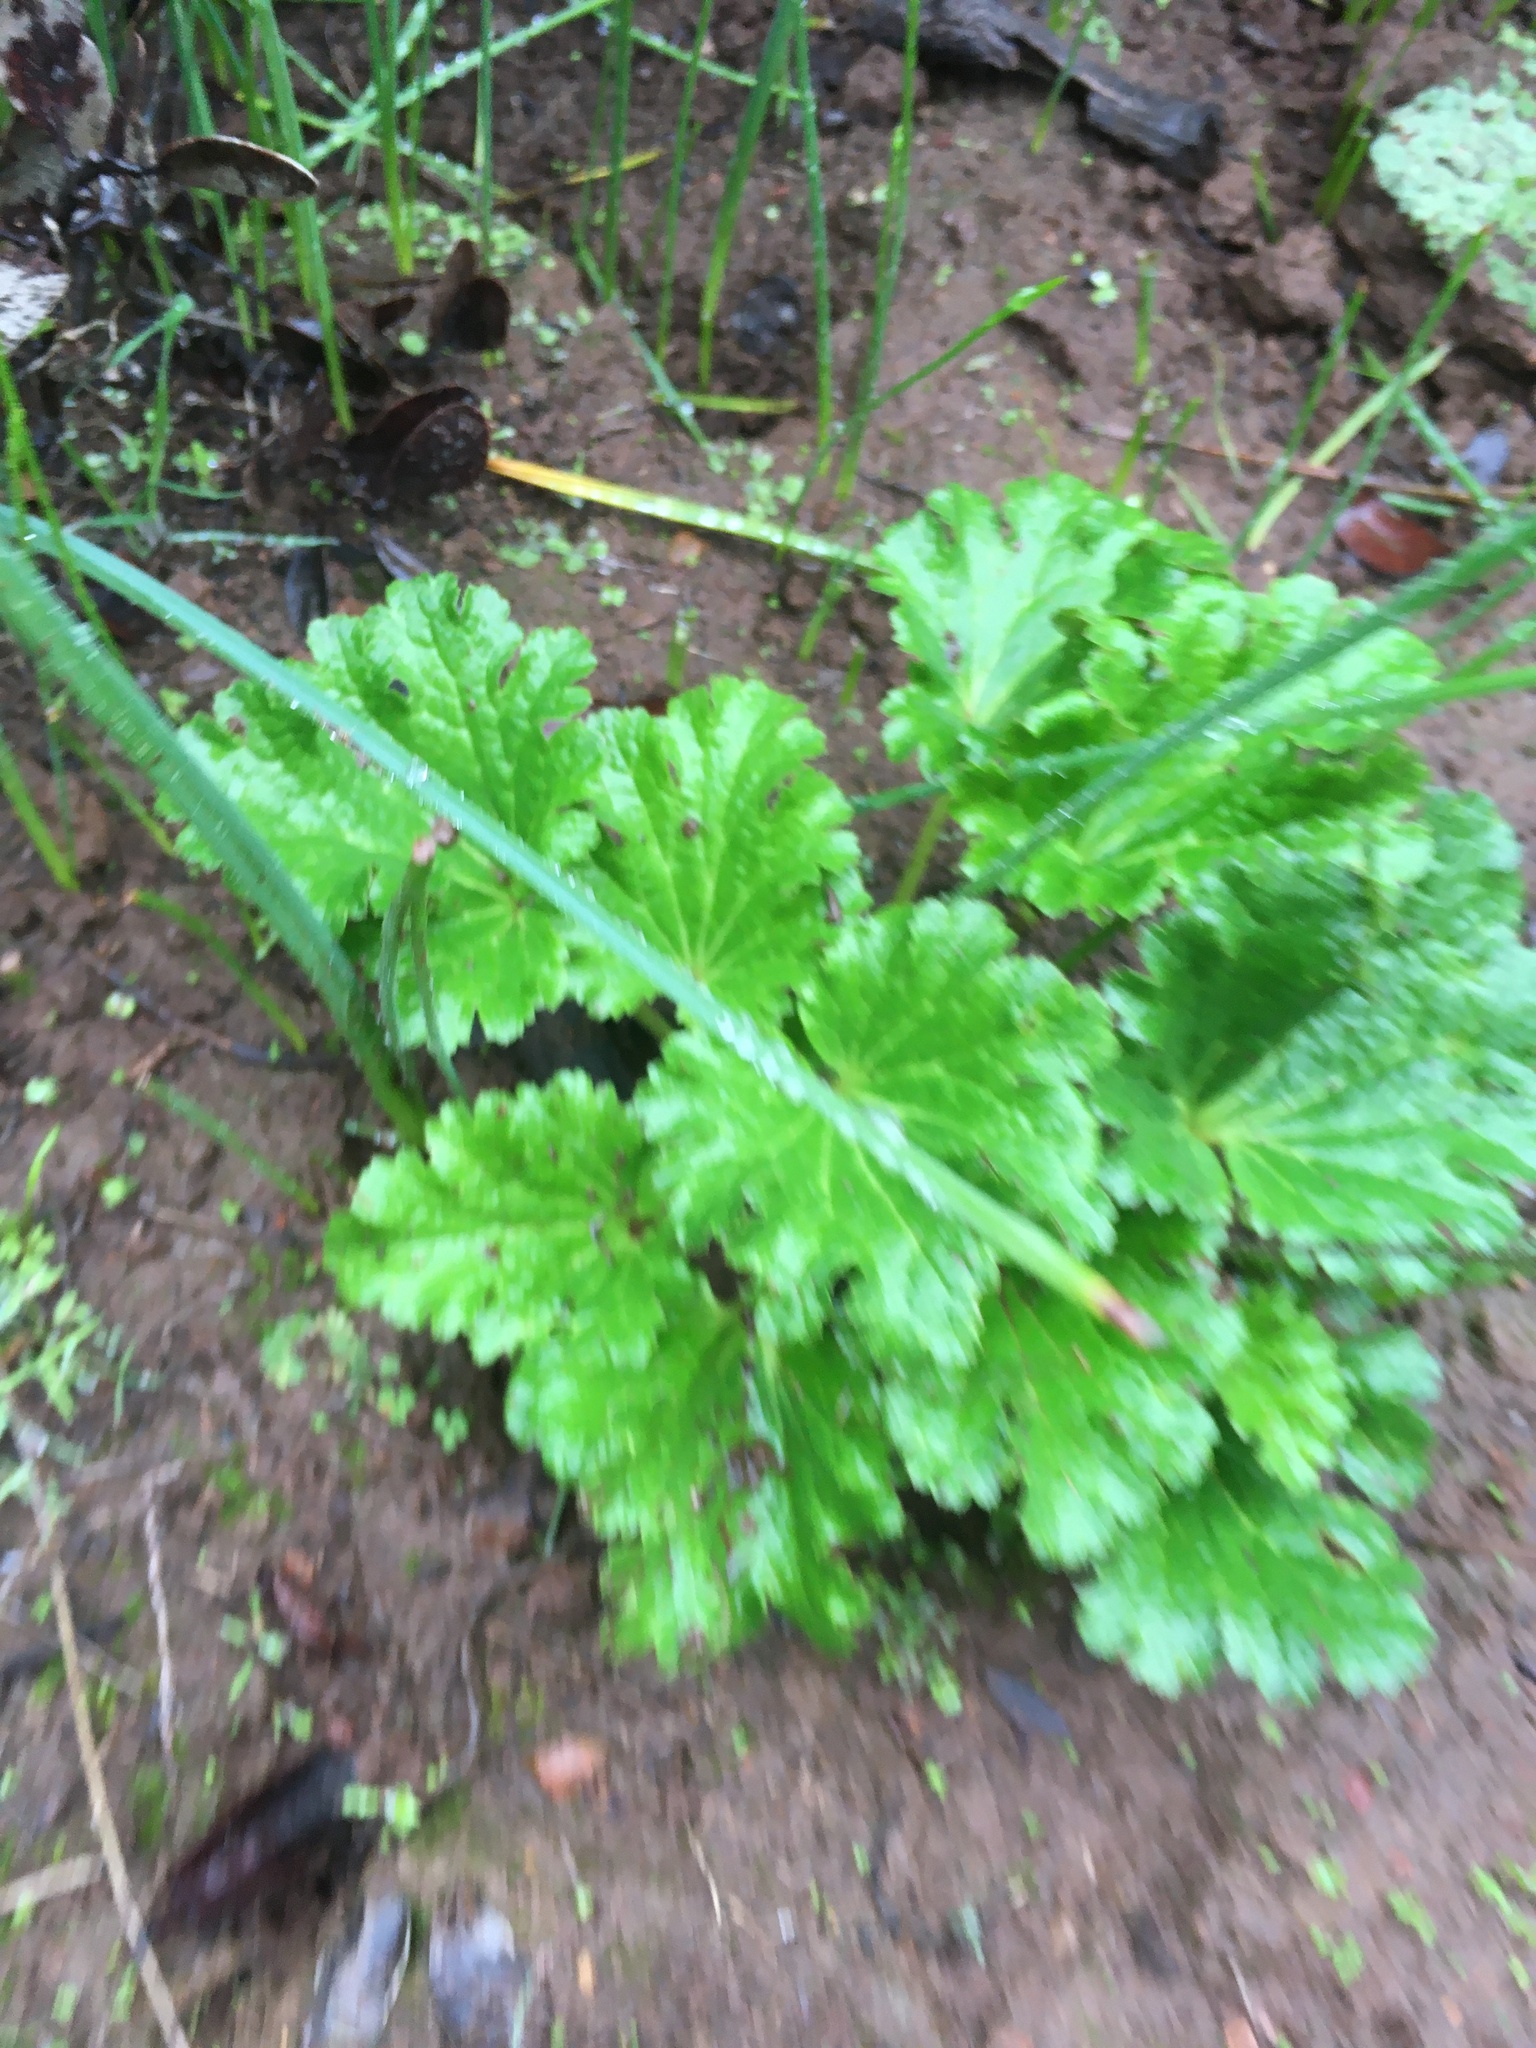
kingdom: Plantae
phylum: Tracheophyta
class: Magnoliopsida
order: Saxifragales
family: Saxifragaceae
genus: Jepsonia
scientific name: Jepsonia malvifolia
